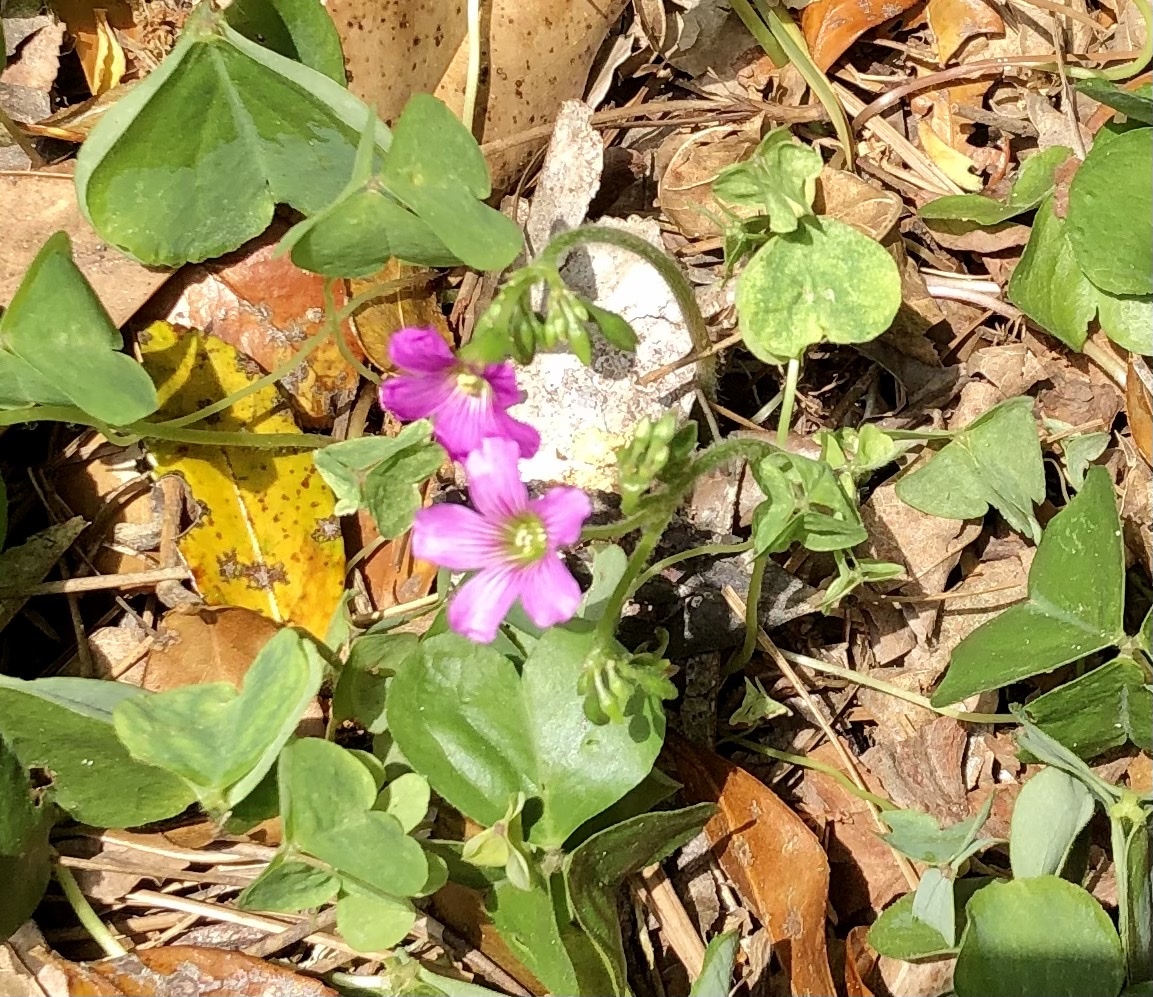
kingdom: Plantae
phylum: Tracheophyta
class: Magnoliopsida
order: Oxalidales
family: Oxalidaceae
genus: Oxalis
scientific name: Oxalis debilis
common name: Large-flowered pink-sorrel
